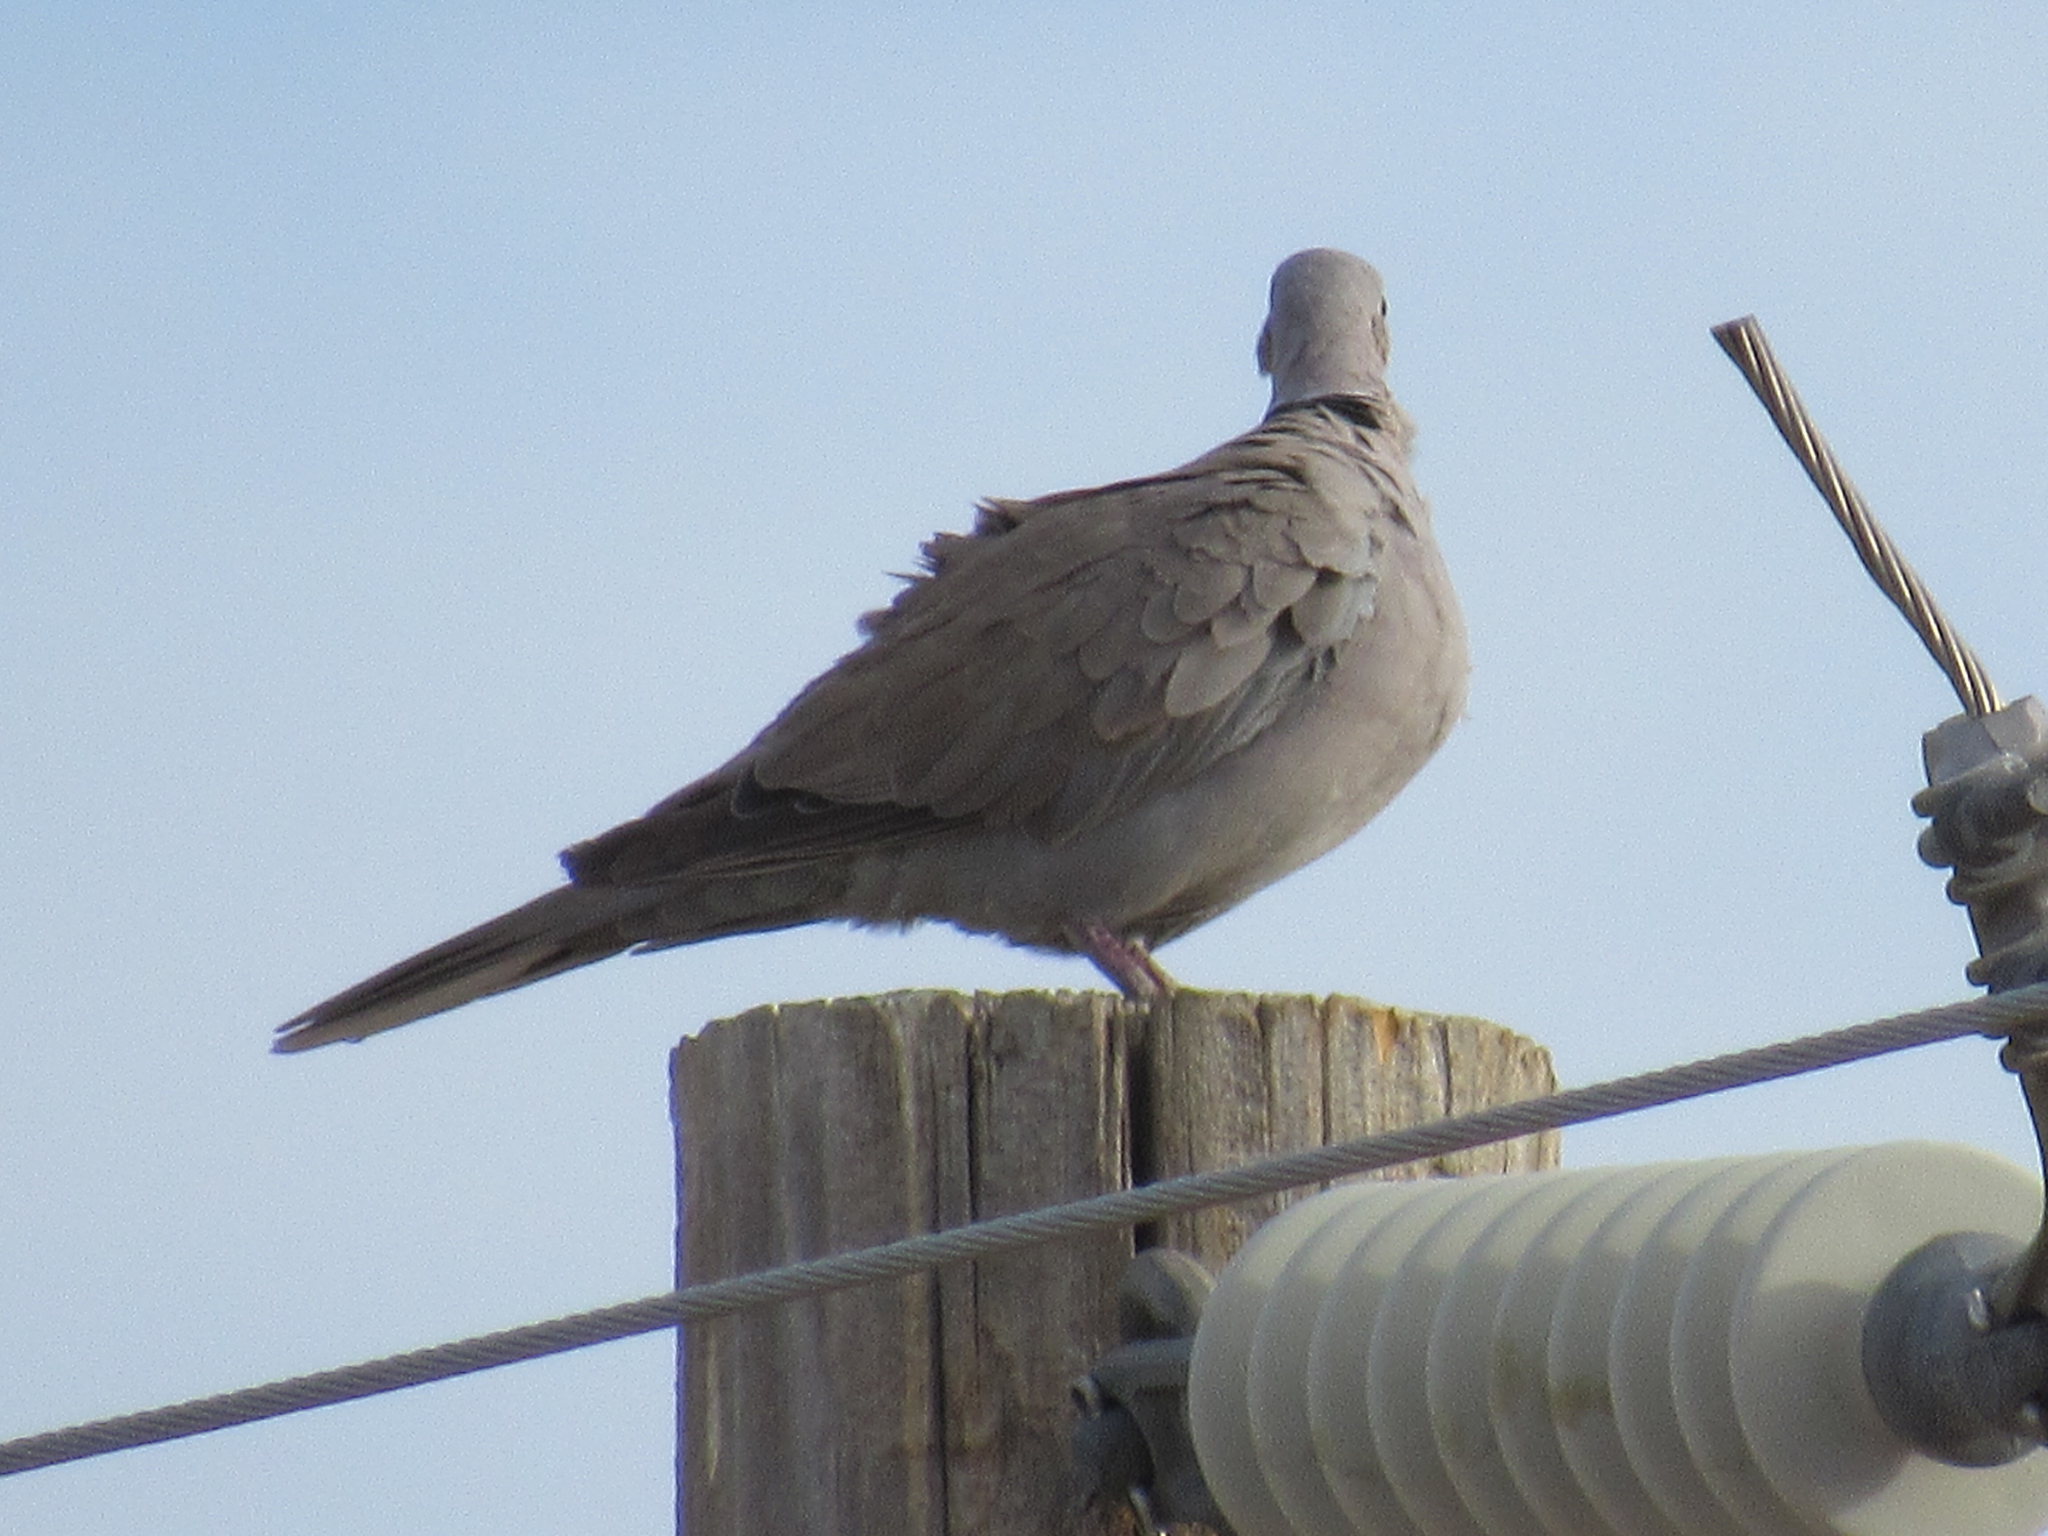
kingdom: Animalia
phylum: Chordata
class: Aves
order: Columbiformes
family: Columbidae
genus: Streptopelia
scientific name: Streptopelia decaocto
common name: Eurasian collared dove
